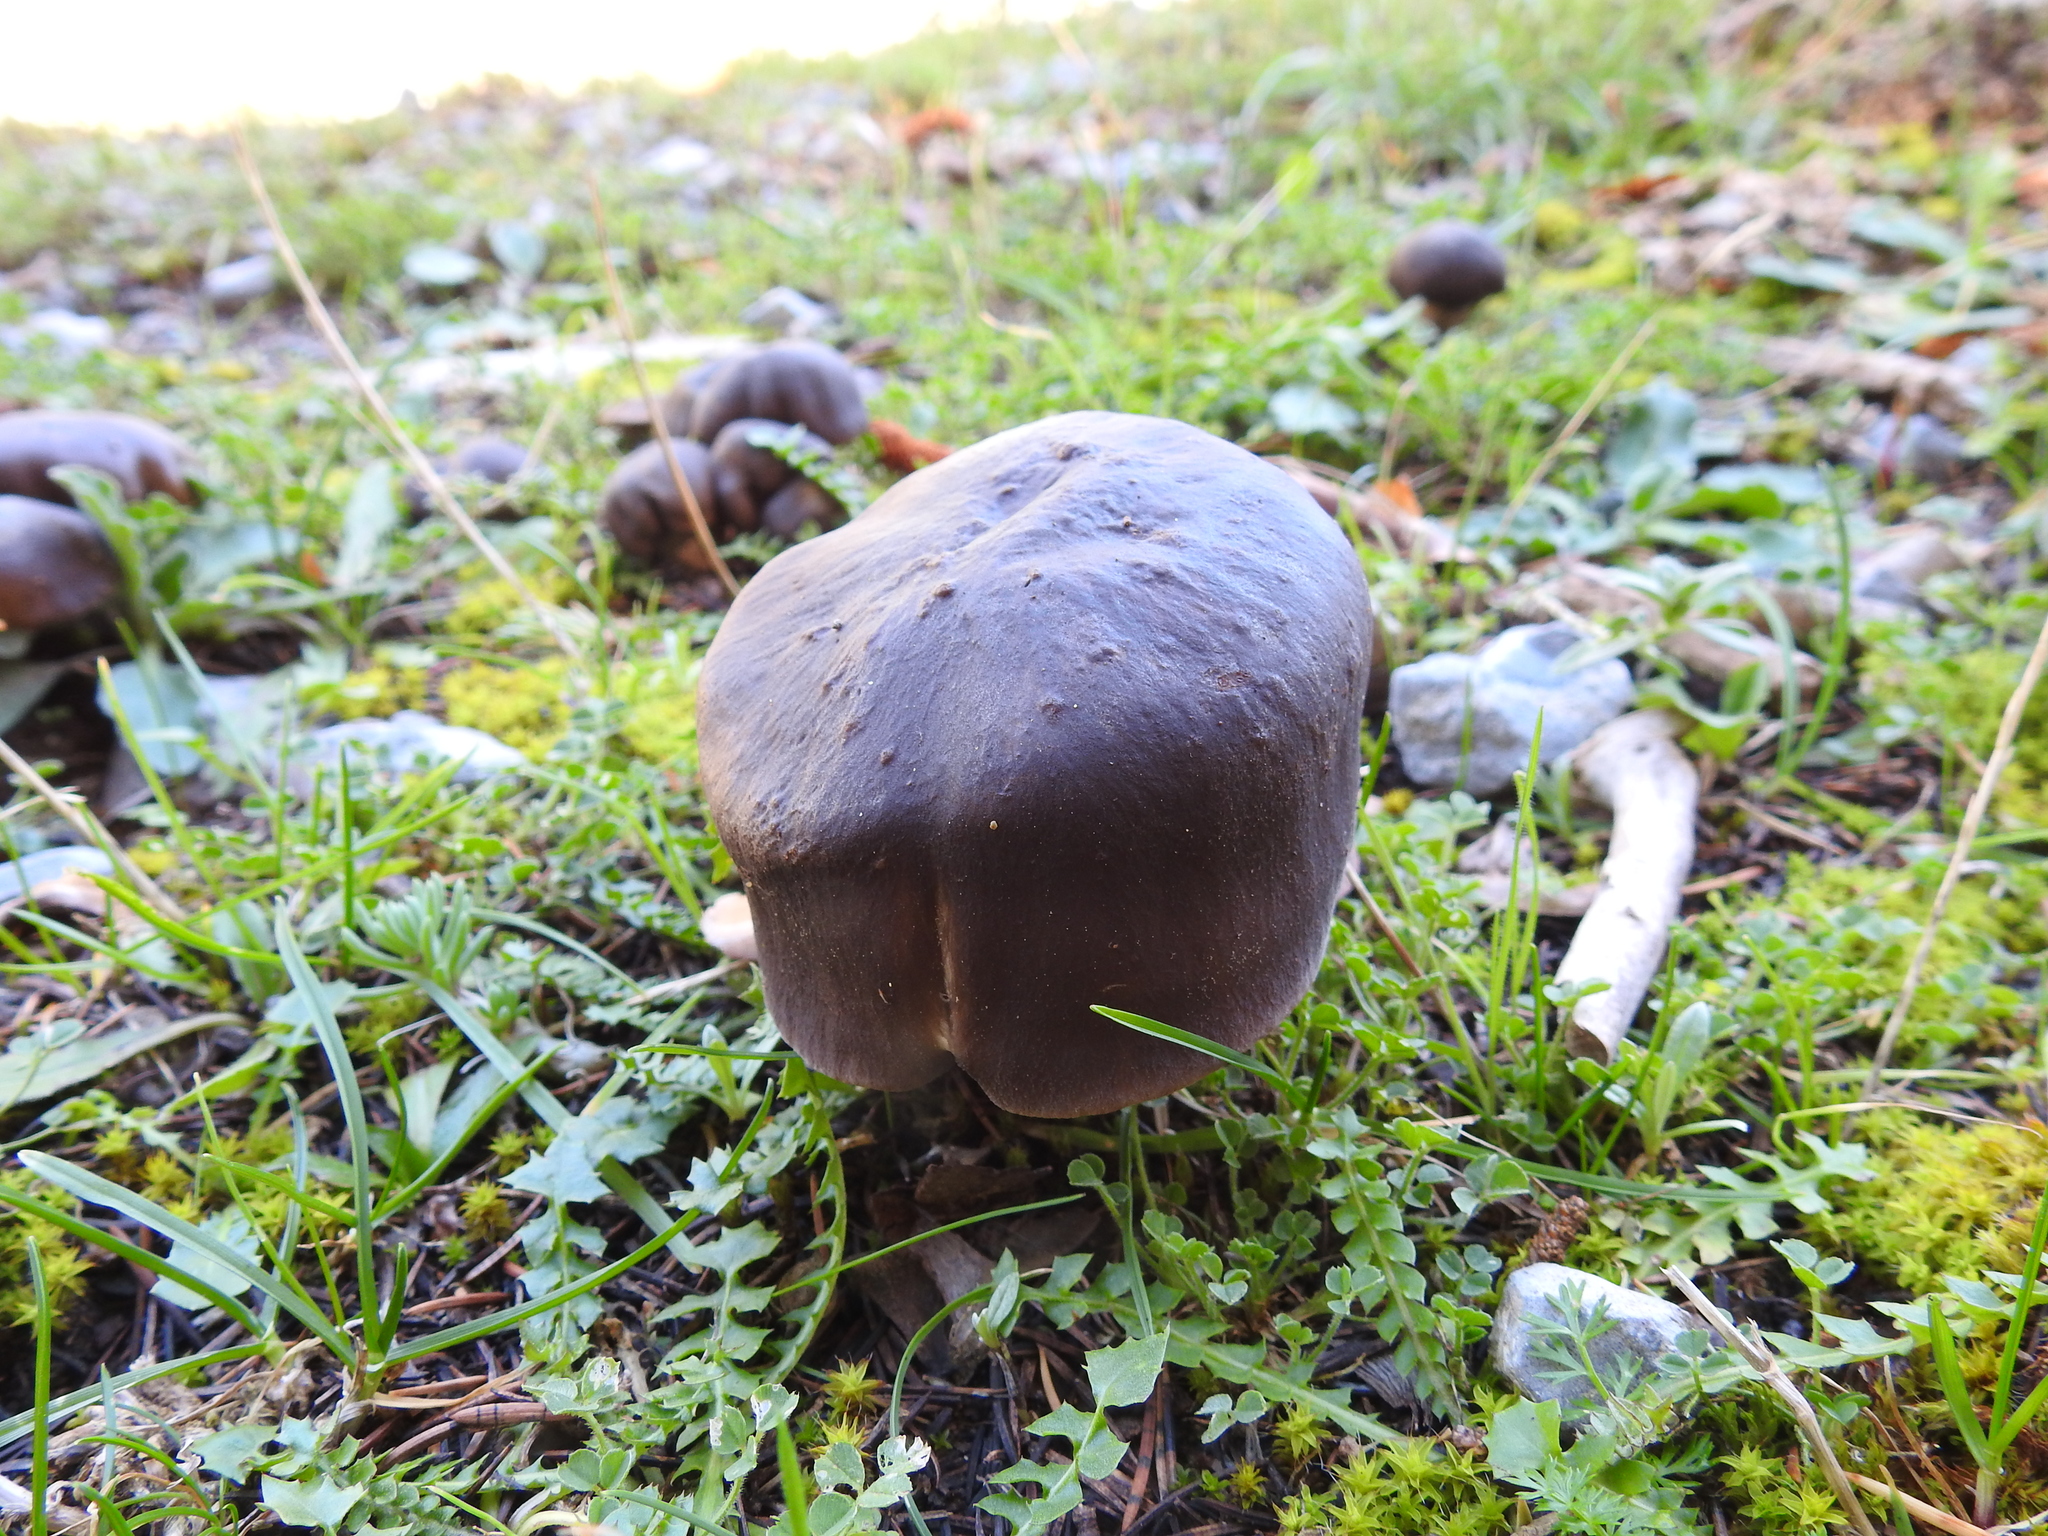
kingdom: Fungi
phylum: Basidiomycota
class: Agaricomycetes
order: Agaricales
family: Entolomataceae
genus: Entoloma
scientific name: Entoloma sericeum
